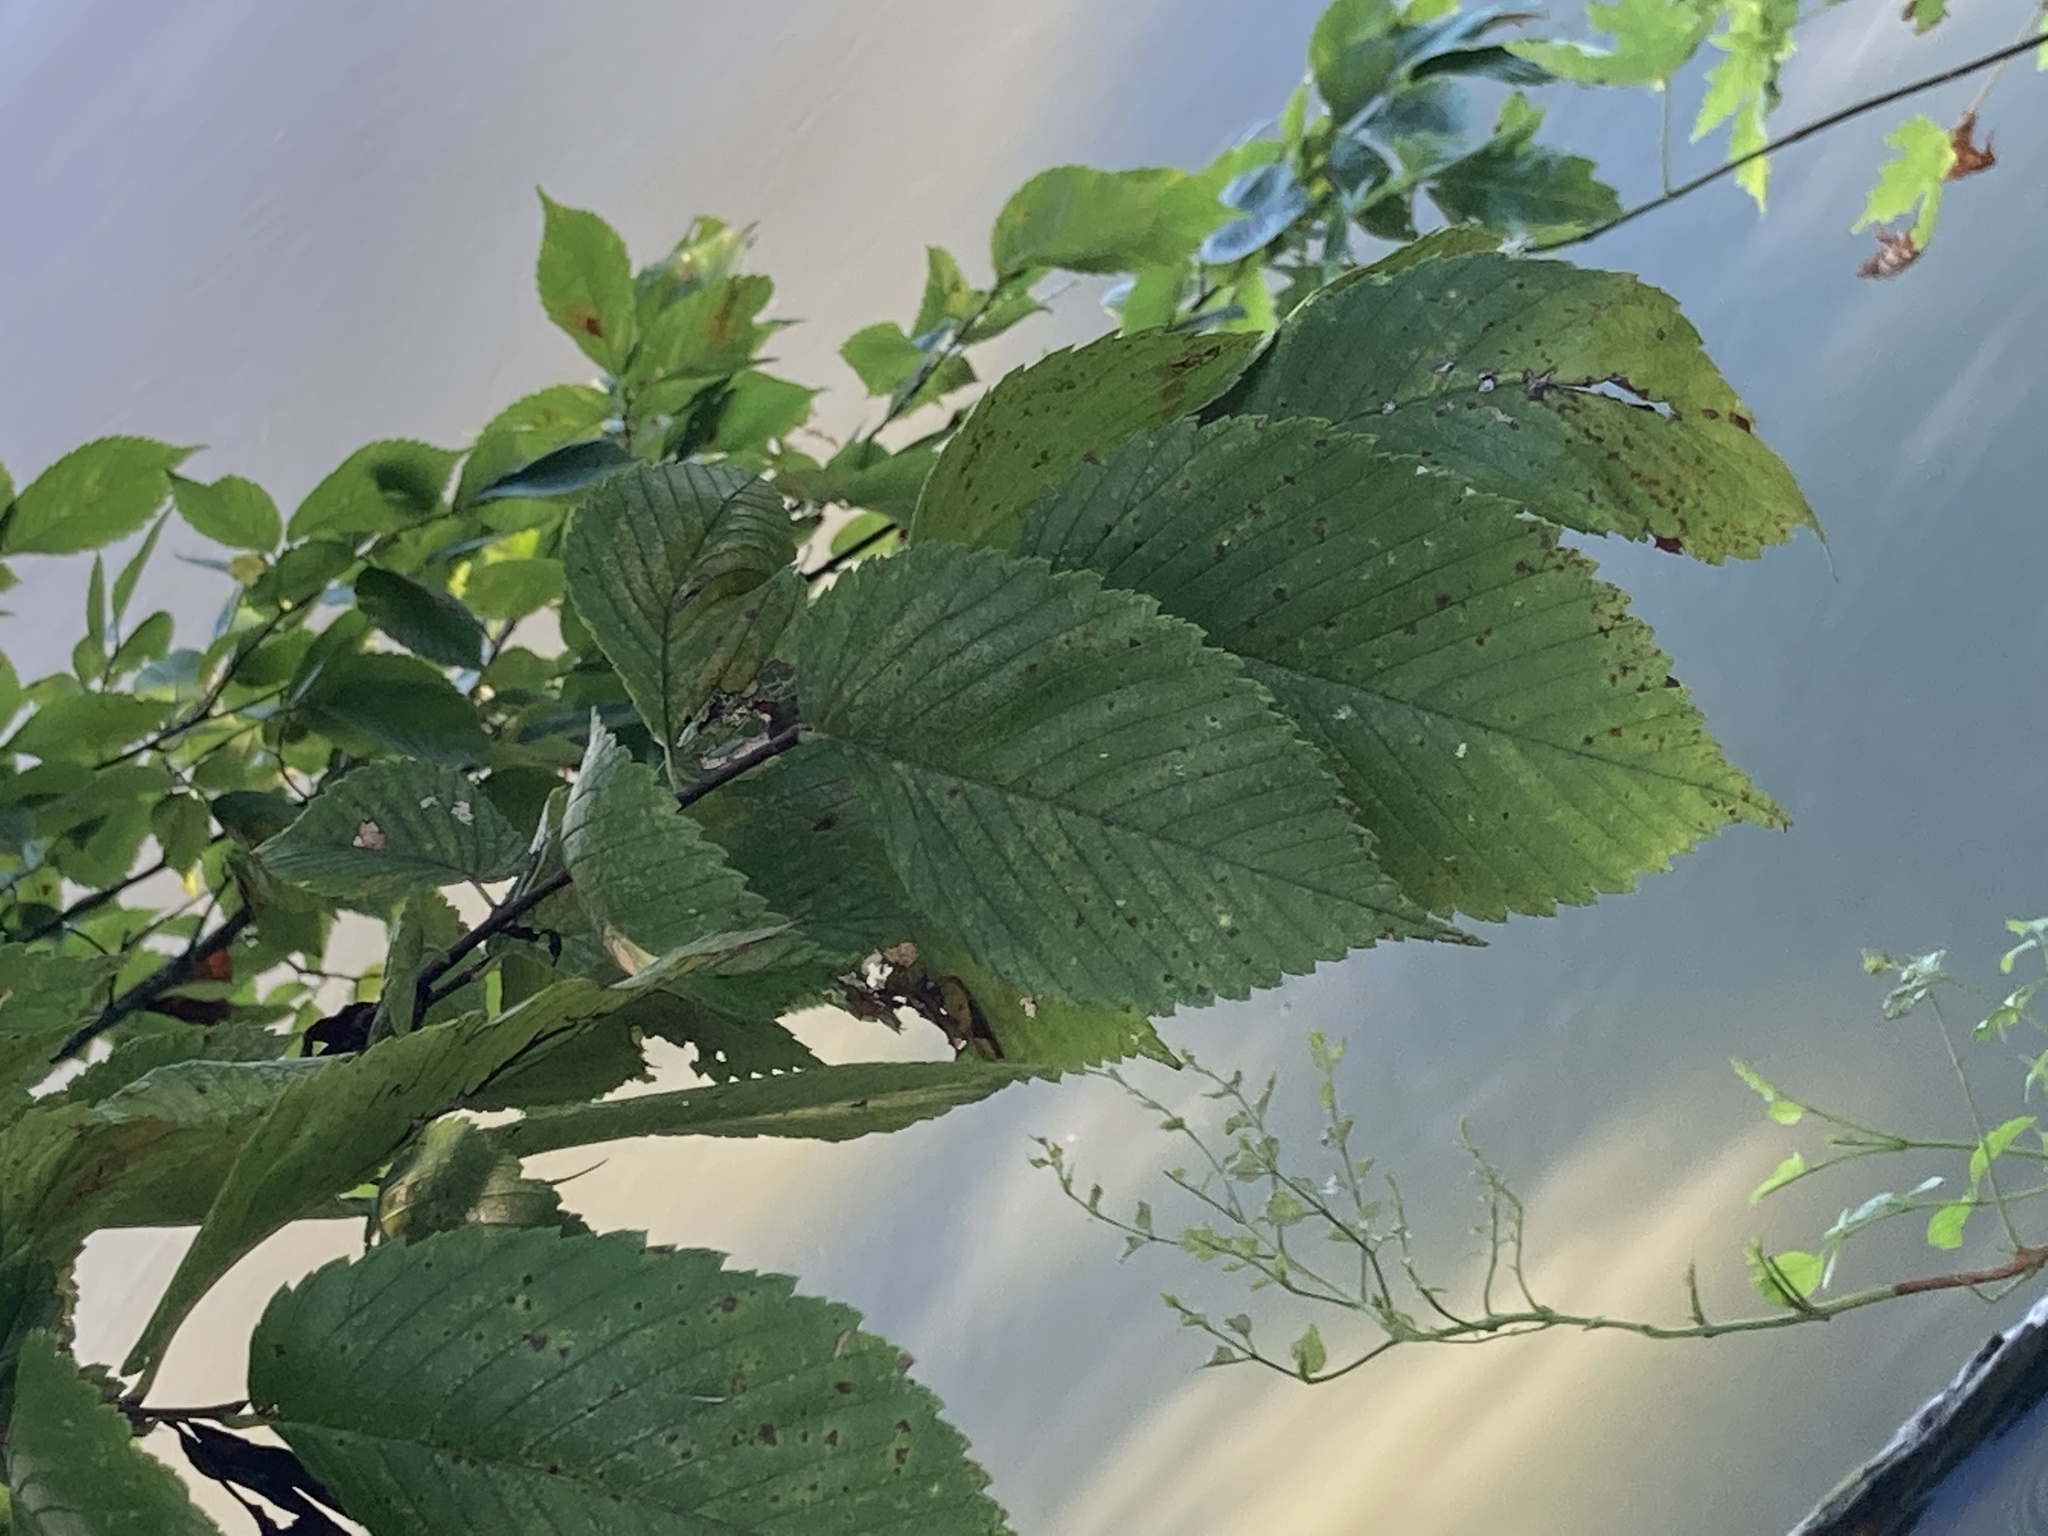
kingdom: Plantae
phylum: Tracheophyta
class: Magnoliopsida
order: Rosales
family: Ulmaceae
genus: Ulmus
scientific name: Ulmus americana
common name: American elm
